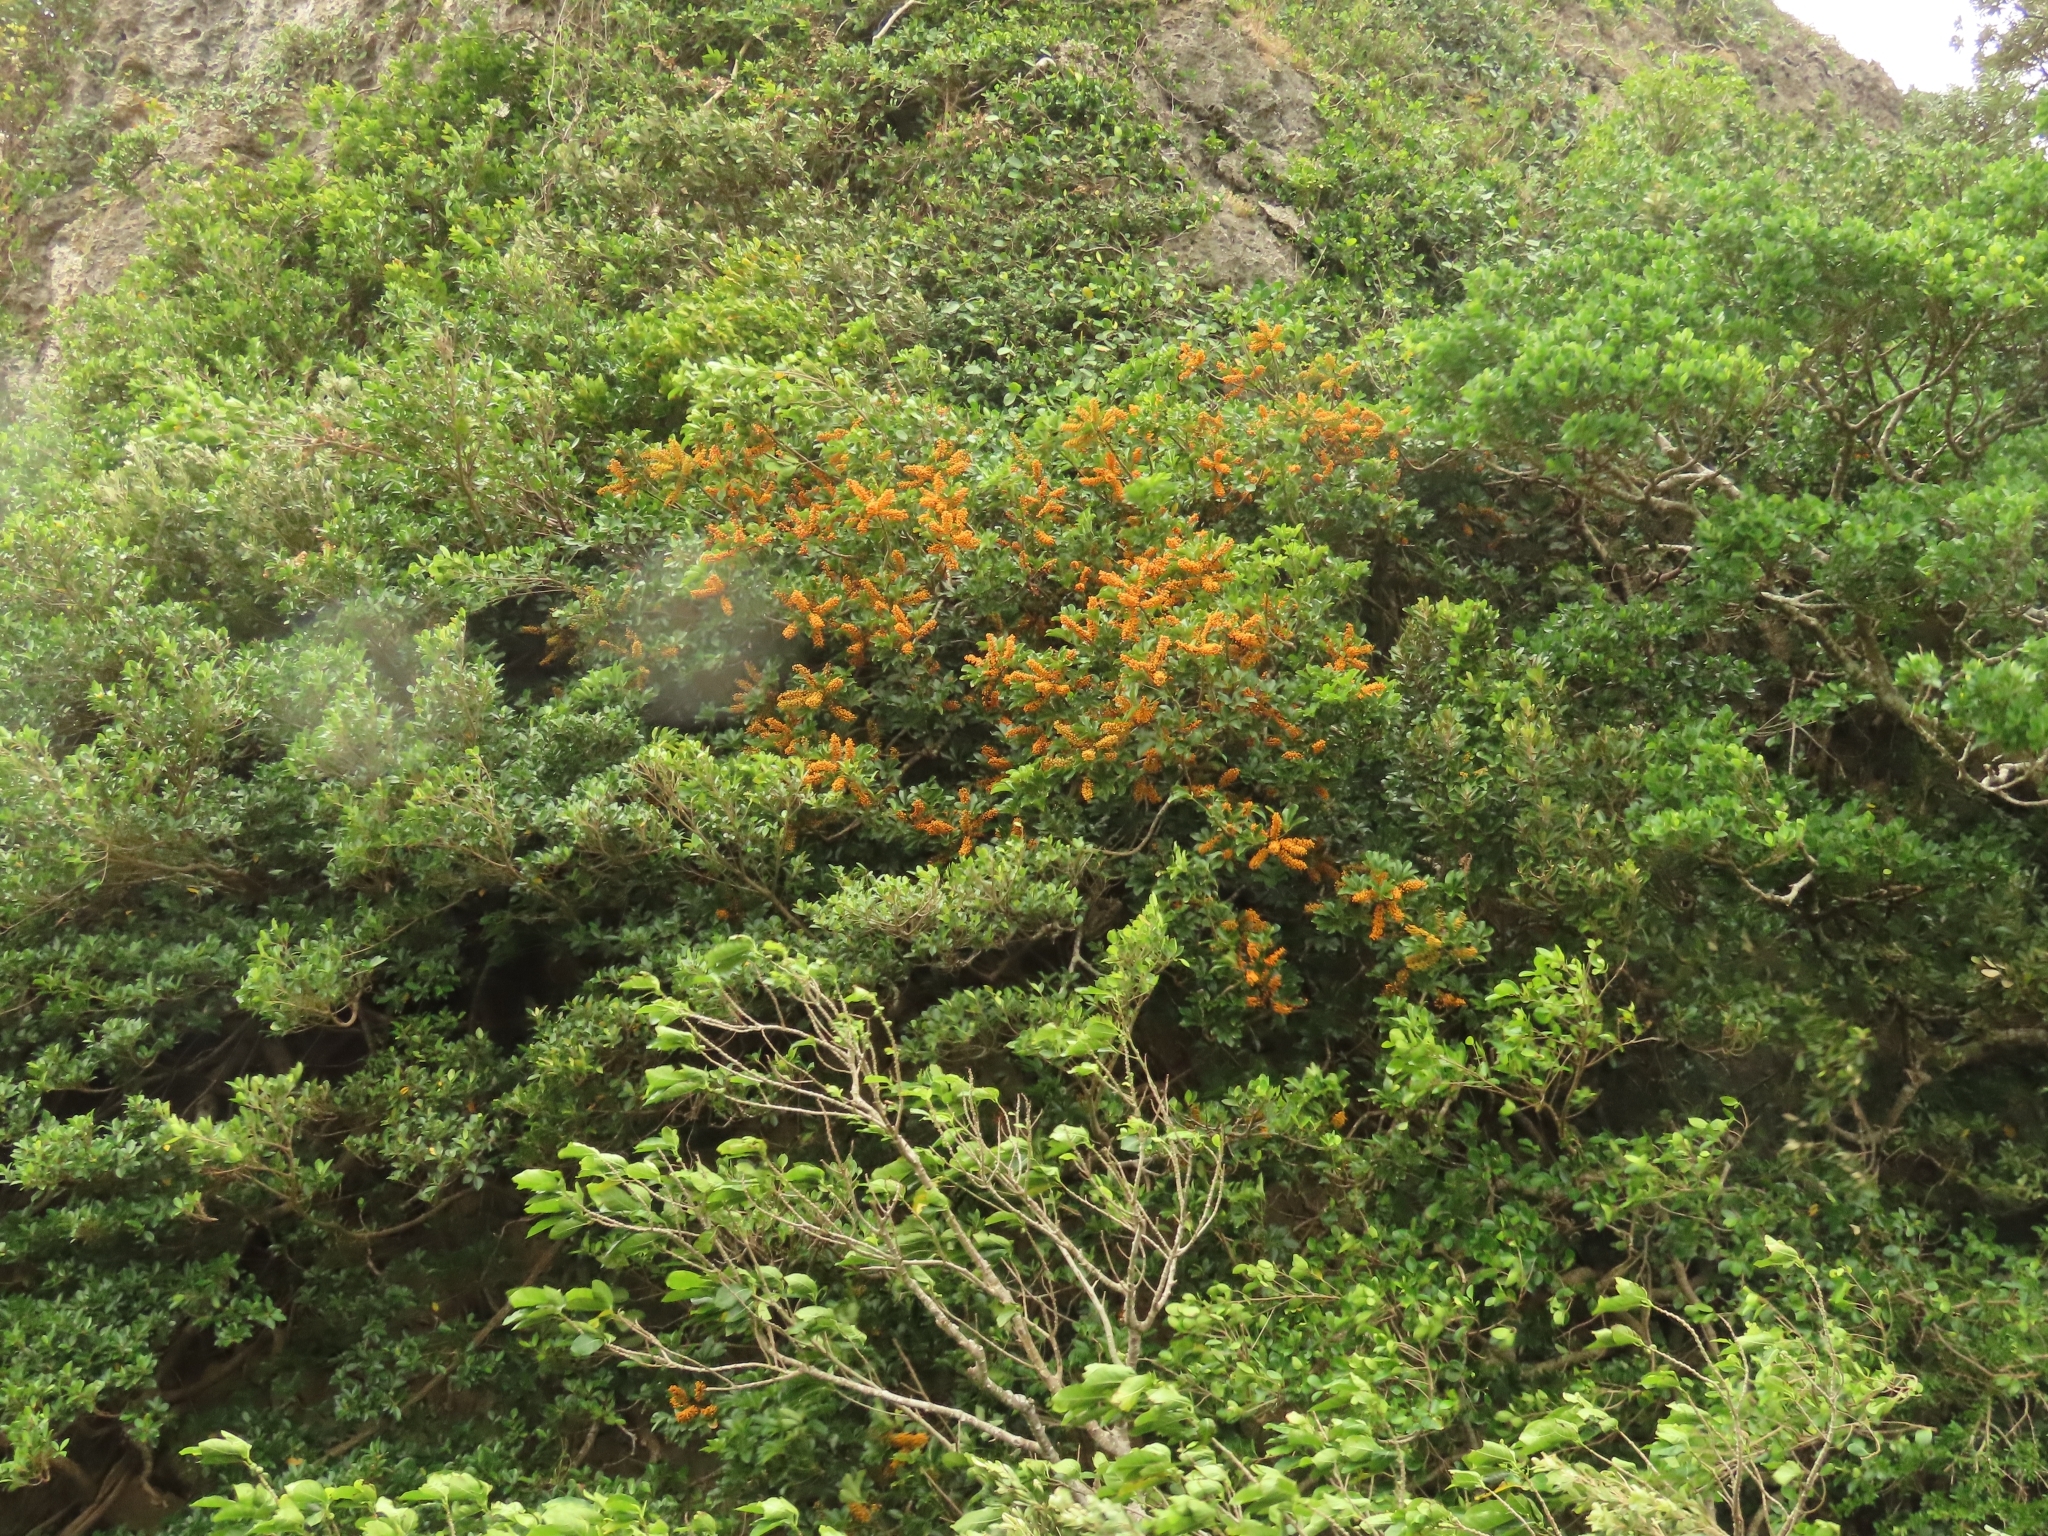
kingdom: Plantae
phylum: Tracheophyta
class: Magnoliopsida
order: Apiales
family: Araliaceae
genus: Heptapleurum
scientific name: Heptapleurum arboricola
